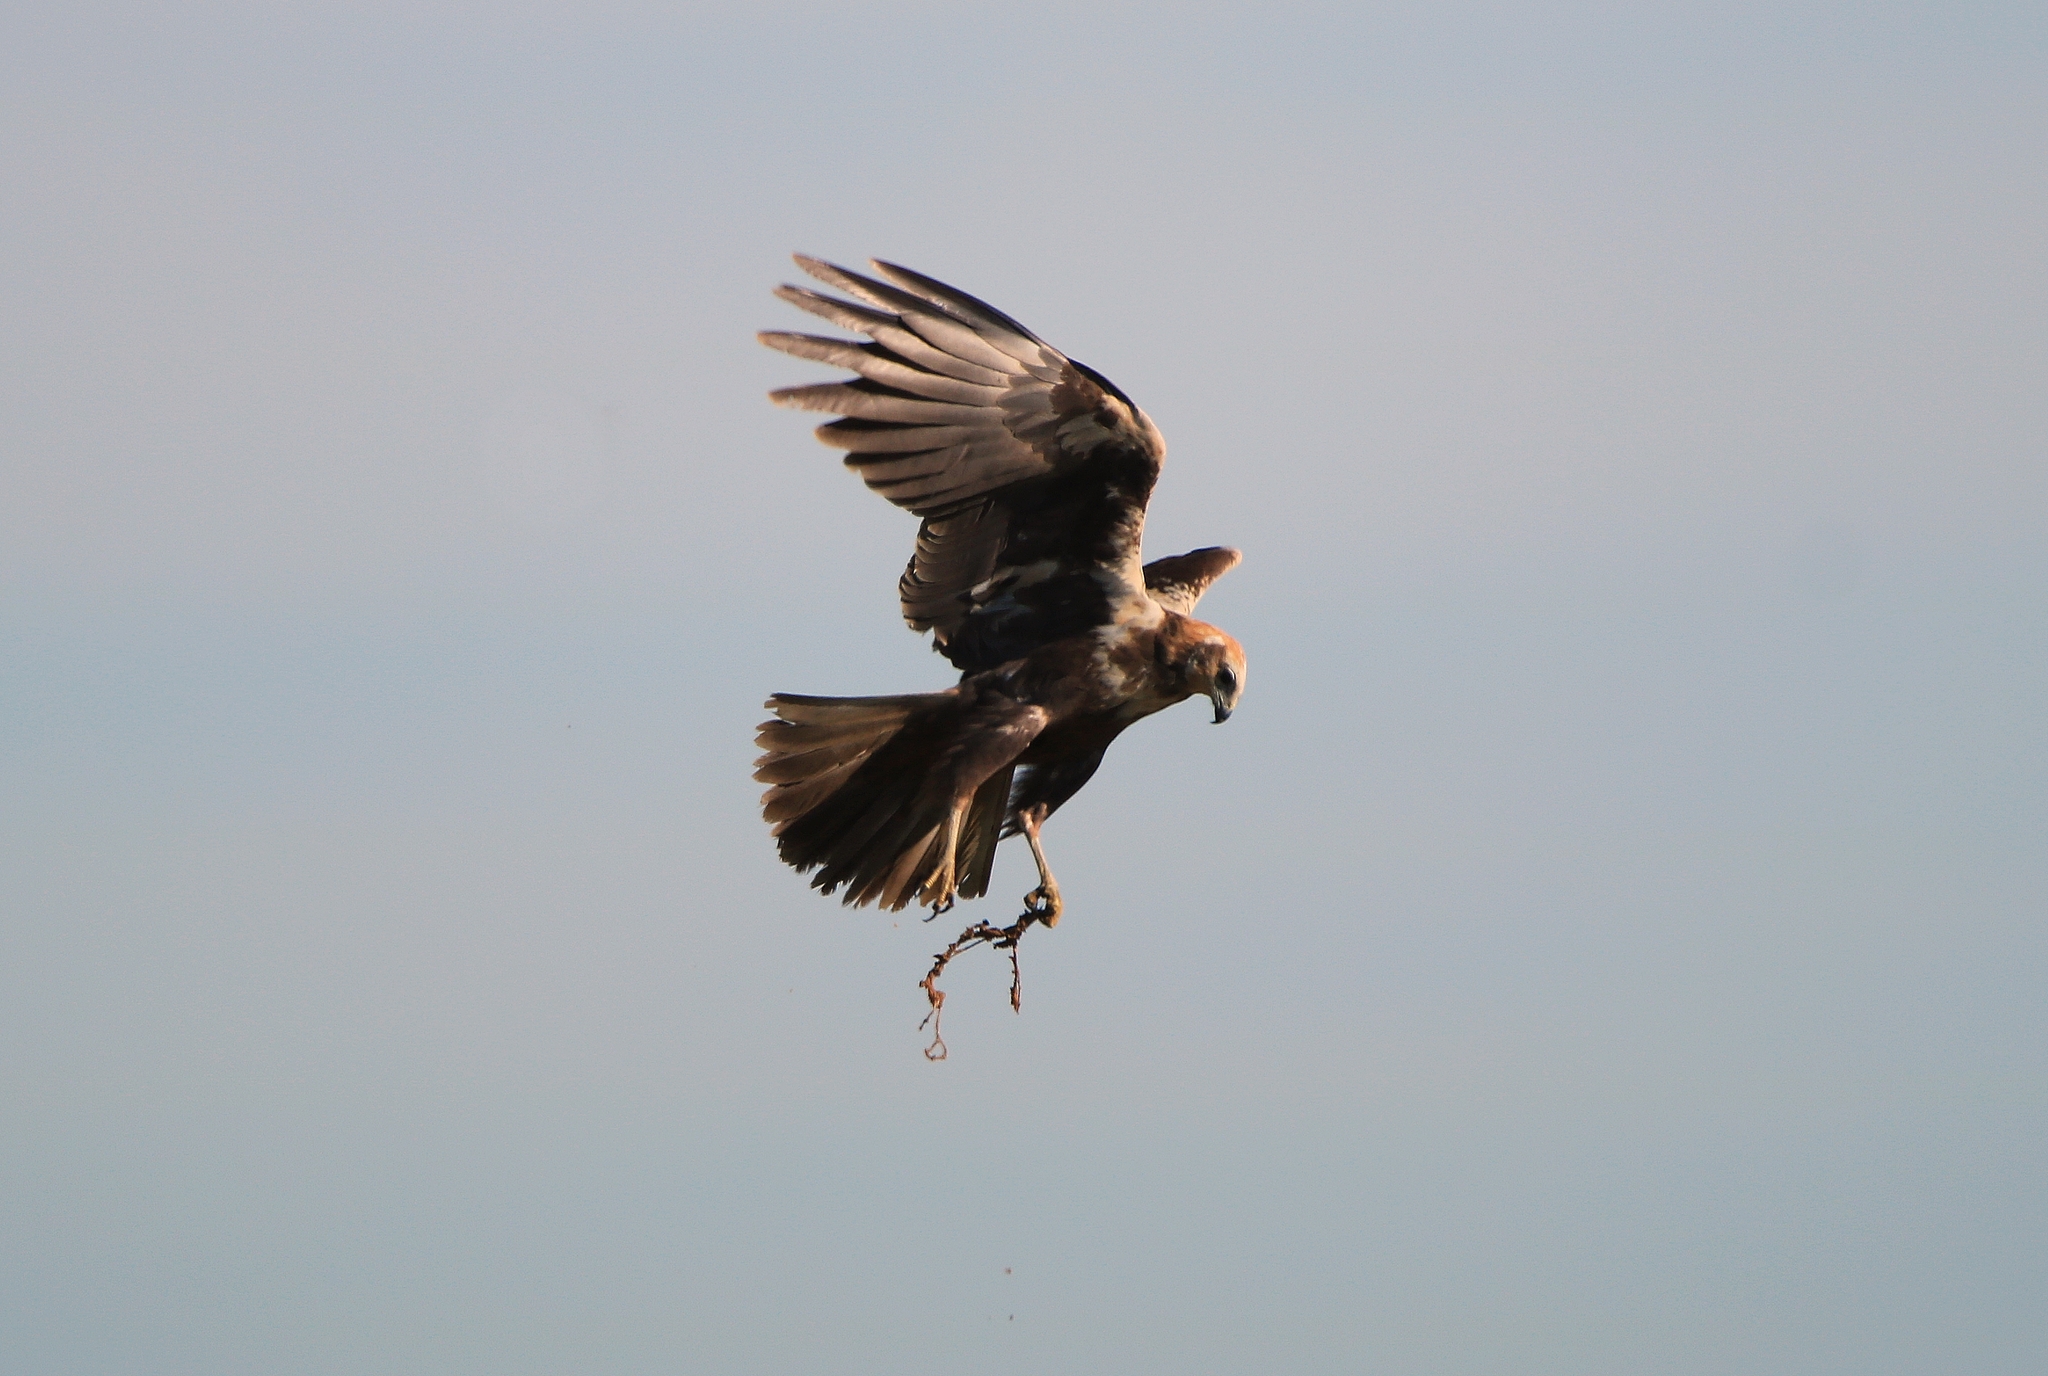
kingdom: Animalia
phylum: Chordata
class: Aves
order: Accipitriformes
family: Accipitridae
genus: Circus
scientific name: Circus aeruginosus
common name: Western marsh harrier
